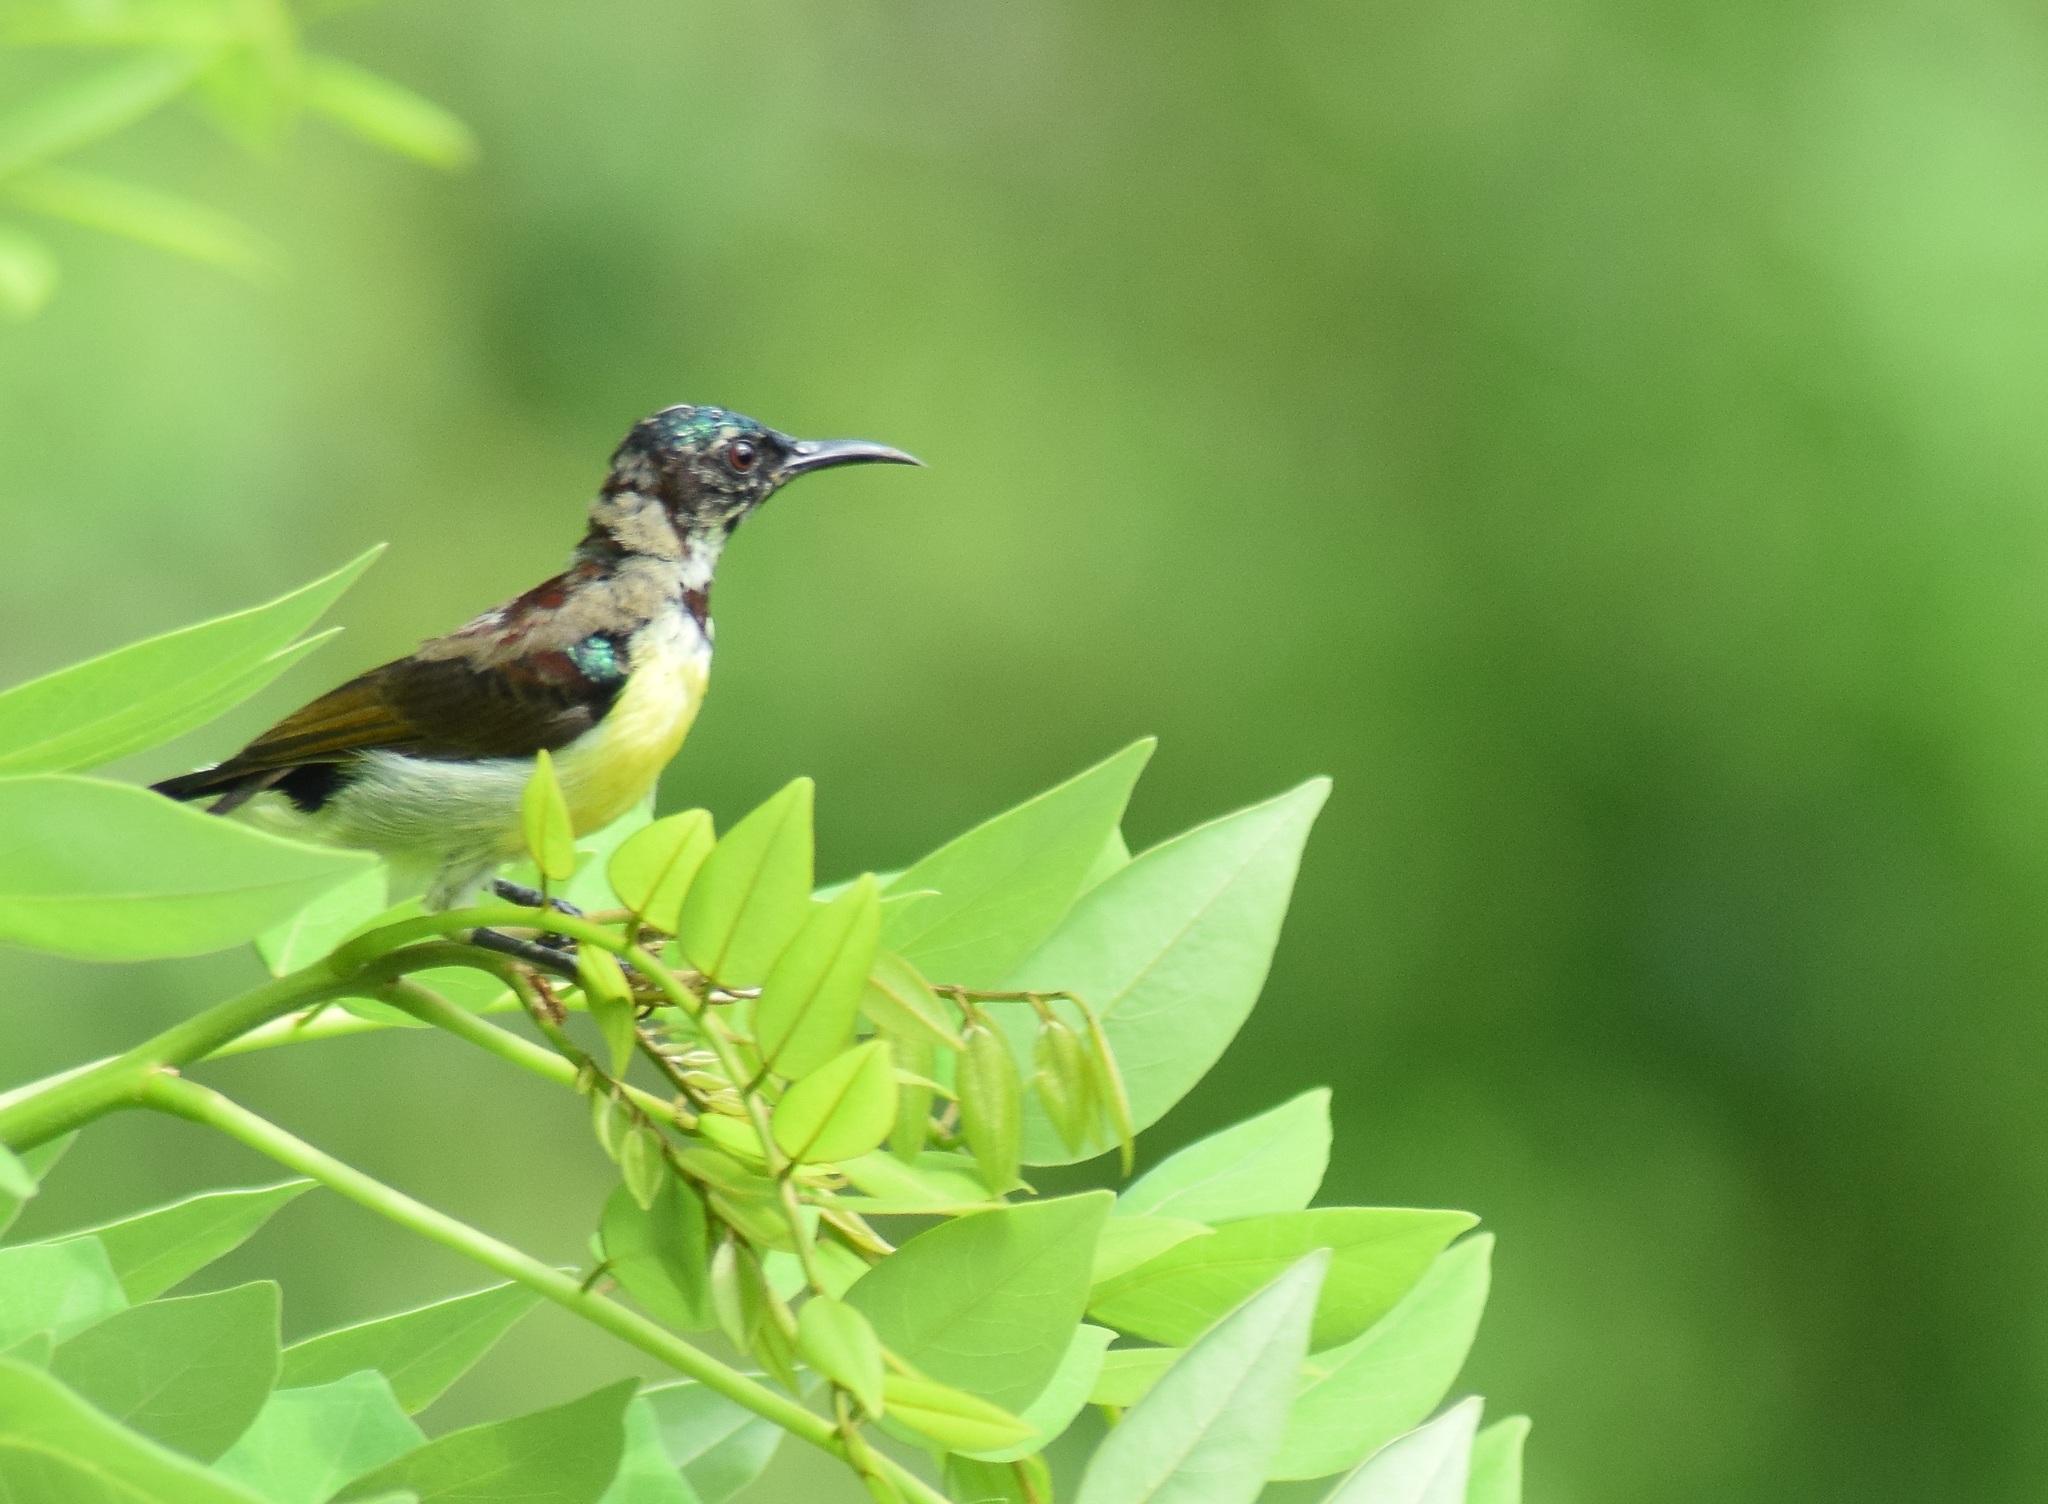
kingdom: Animalia
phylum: Chordata
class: Aves
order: Passeriformes
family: Nectariniidae
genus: Leptocoma
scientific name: Leptocoma zeylonica
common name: Purple-rumped sunbird
